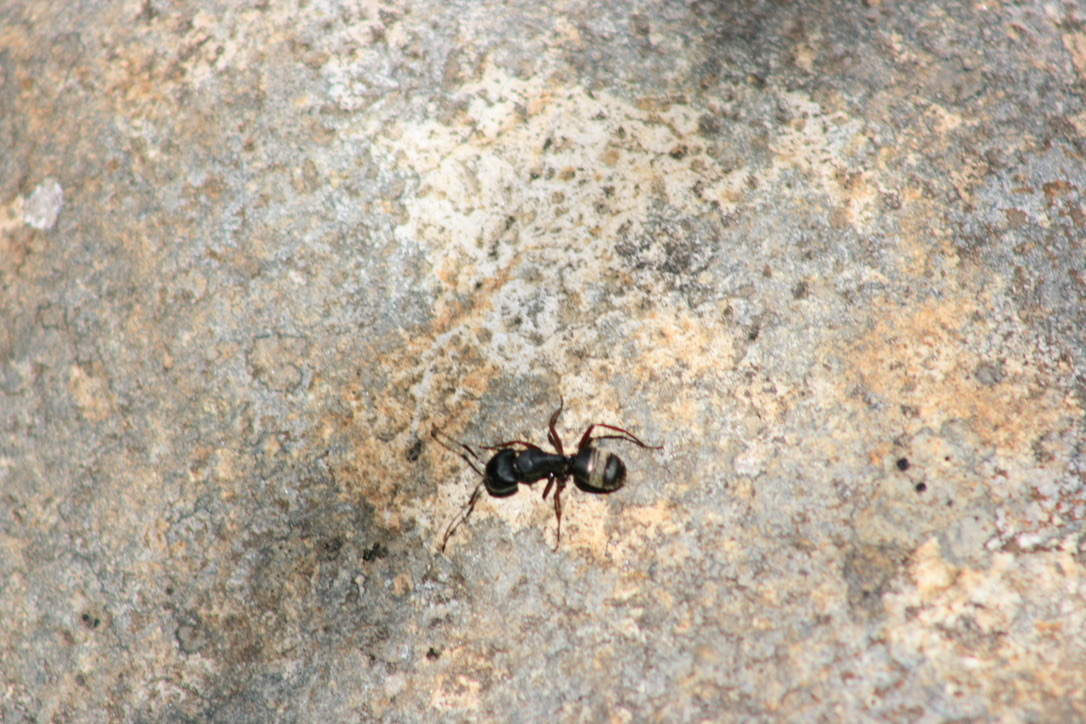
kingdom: Animalia
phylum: Arthropoda
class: Insecta
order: Hymenoptera
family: Formicidae
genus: Camponotus
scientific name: Camponotus modoc
